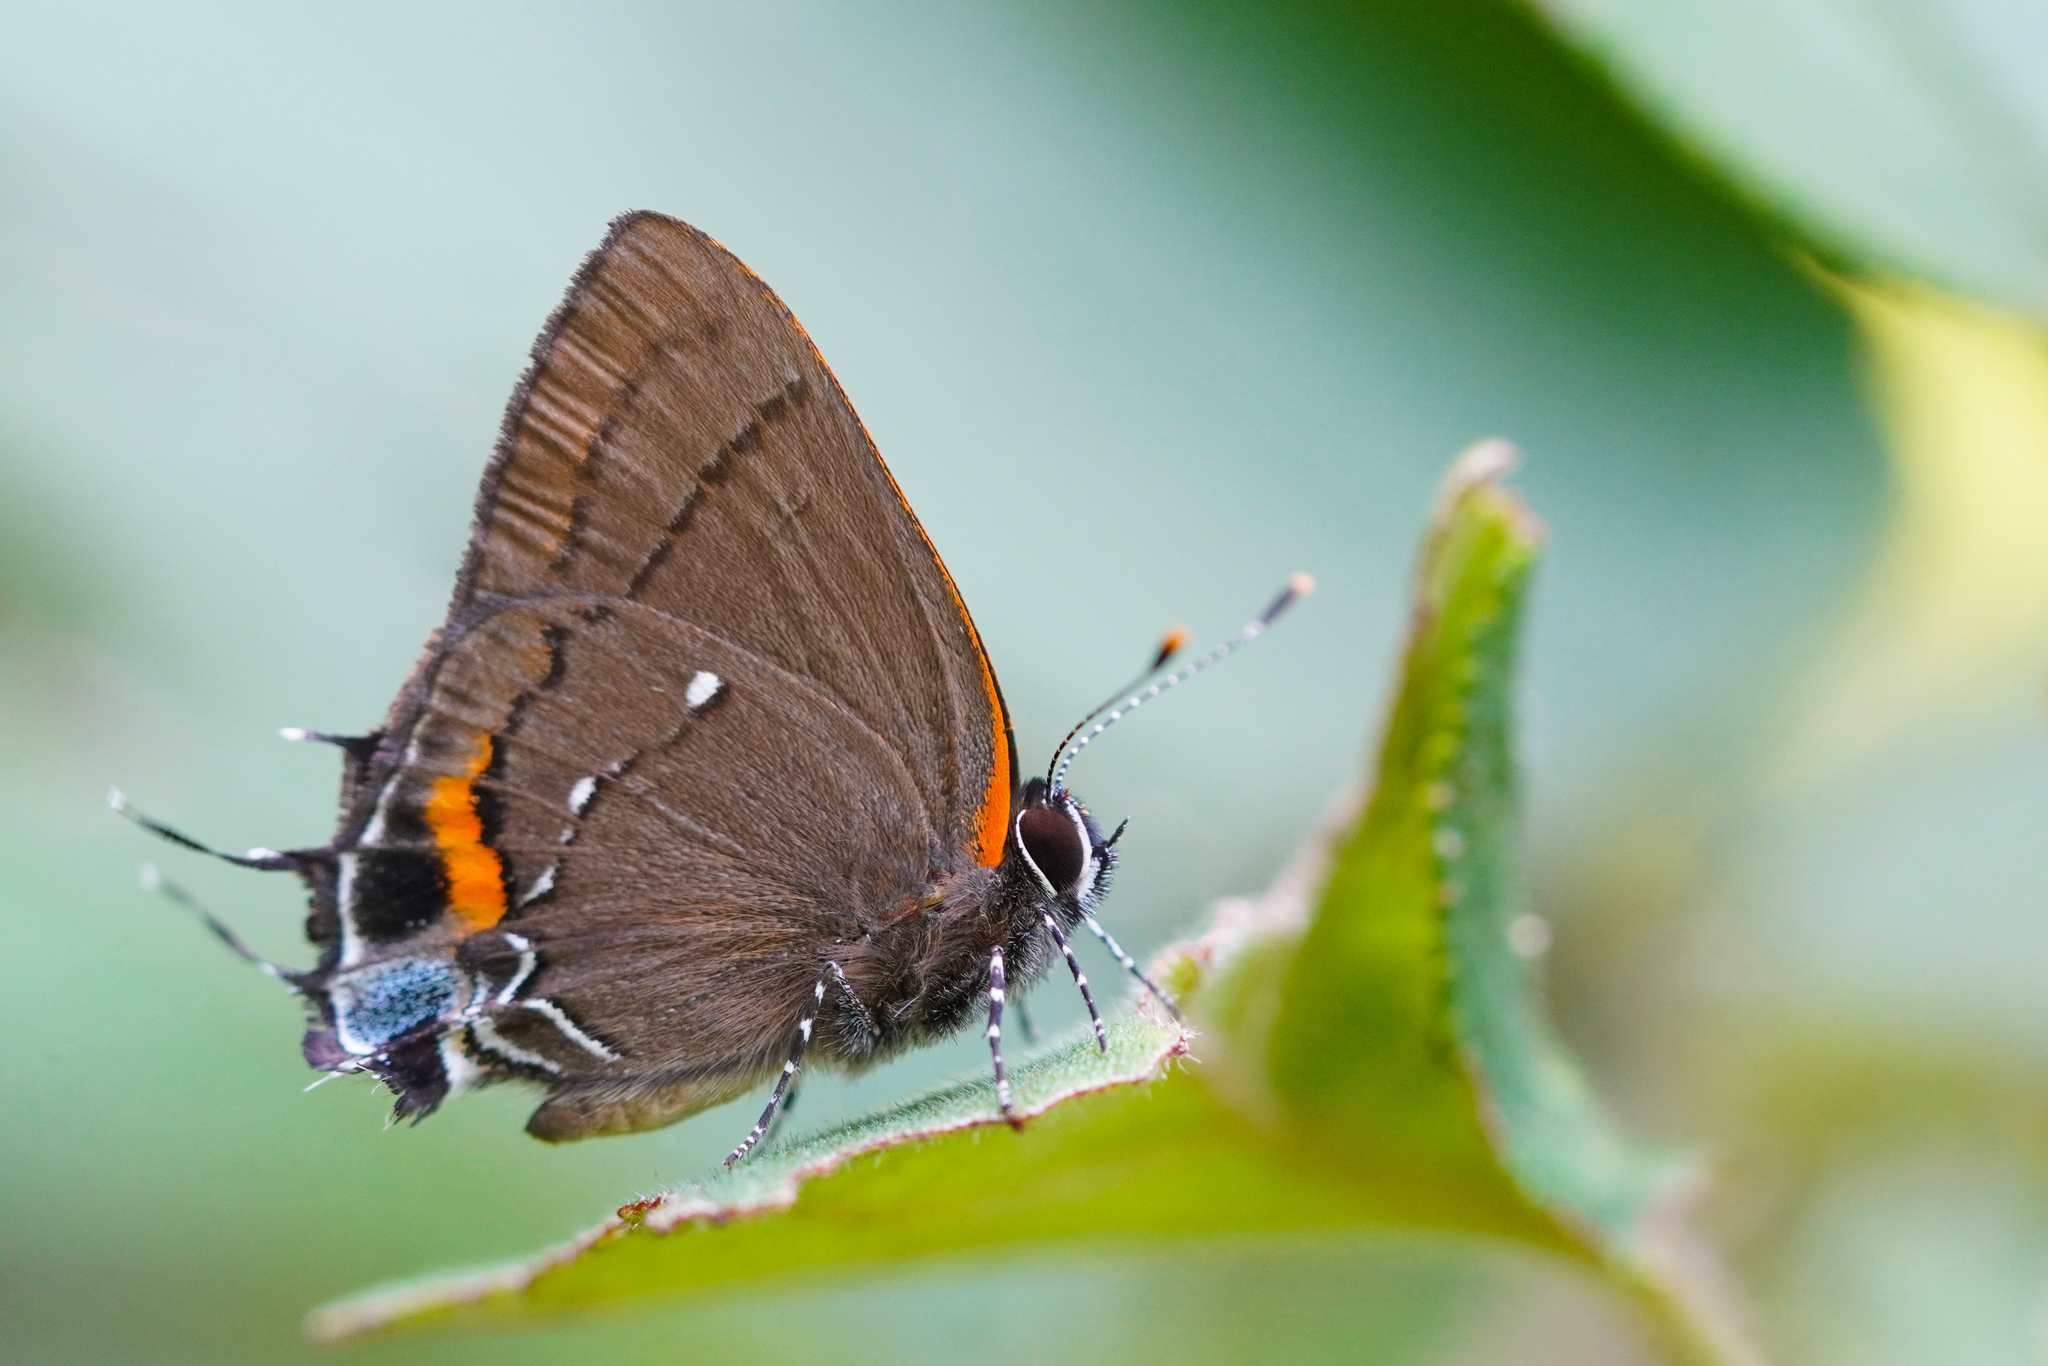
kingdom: Animalia
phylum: Arthropoda
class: Insecta
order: Lepidoptera
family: Lycaenidae
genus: Thecla
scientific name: Thecla angelia
